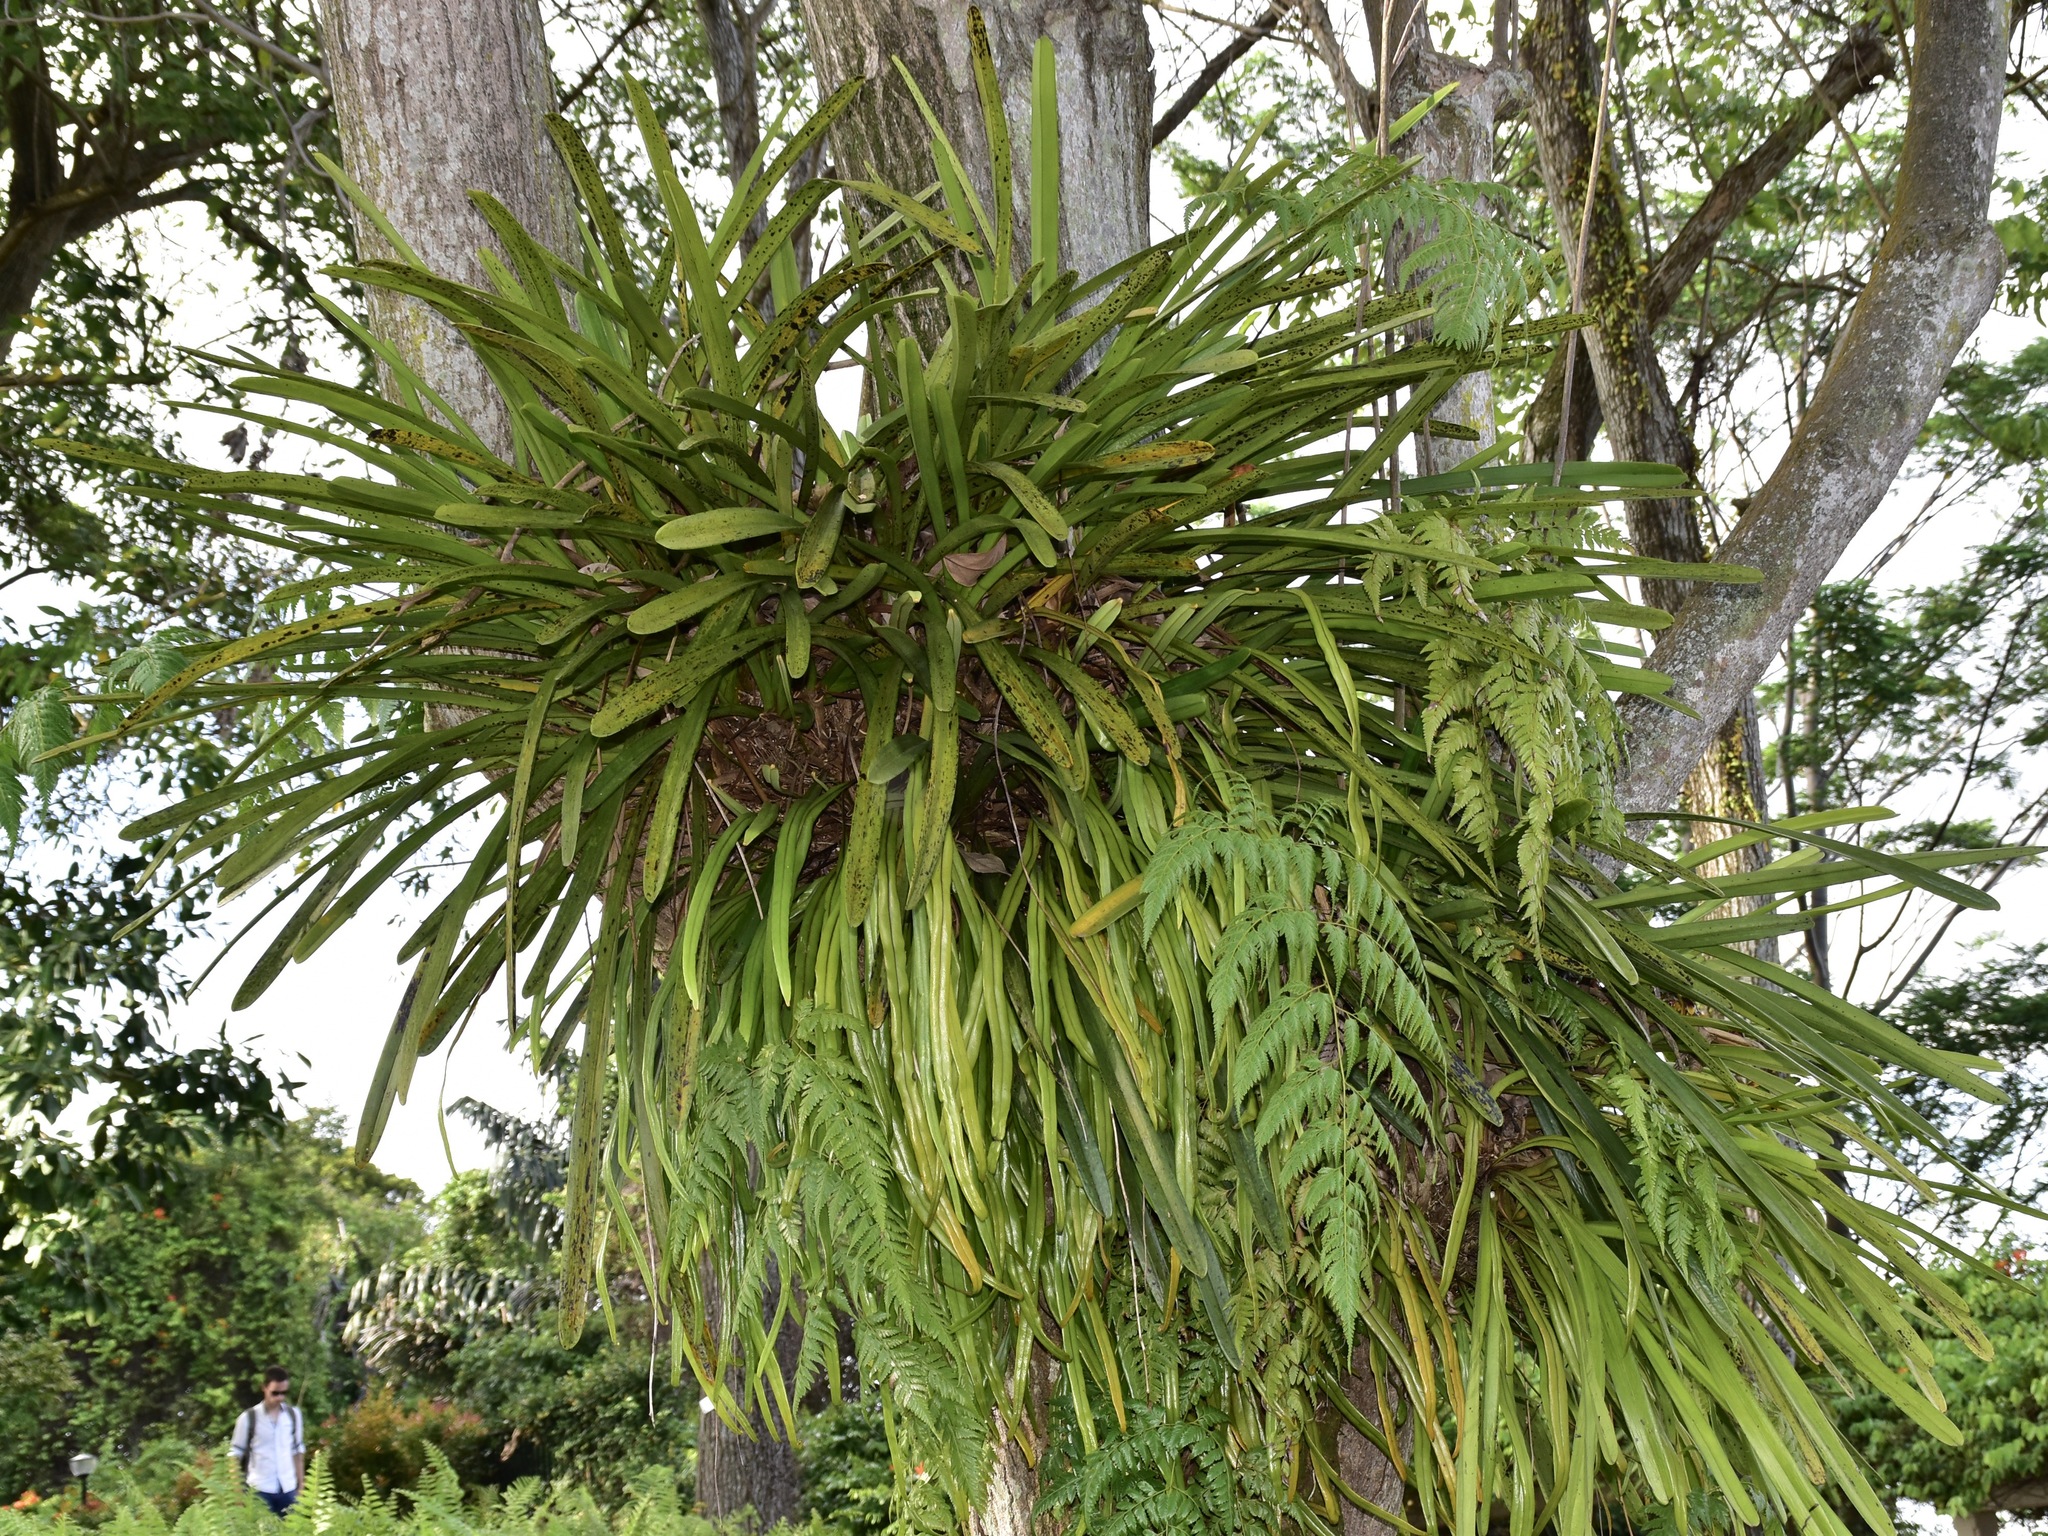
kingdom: Plantae
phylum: Tracheophyta
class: Polypodiopsida
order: Polypodiales
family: Polypodiaceae
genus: Pyrrosia
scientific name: Pyrrosia longifolia
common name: Long-leaved felt fern
